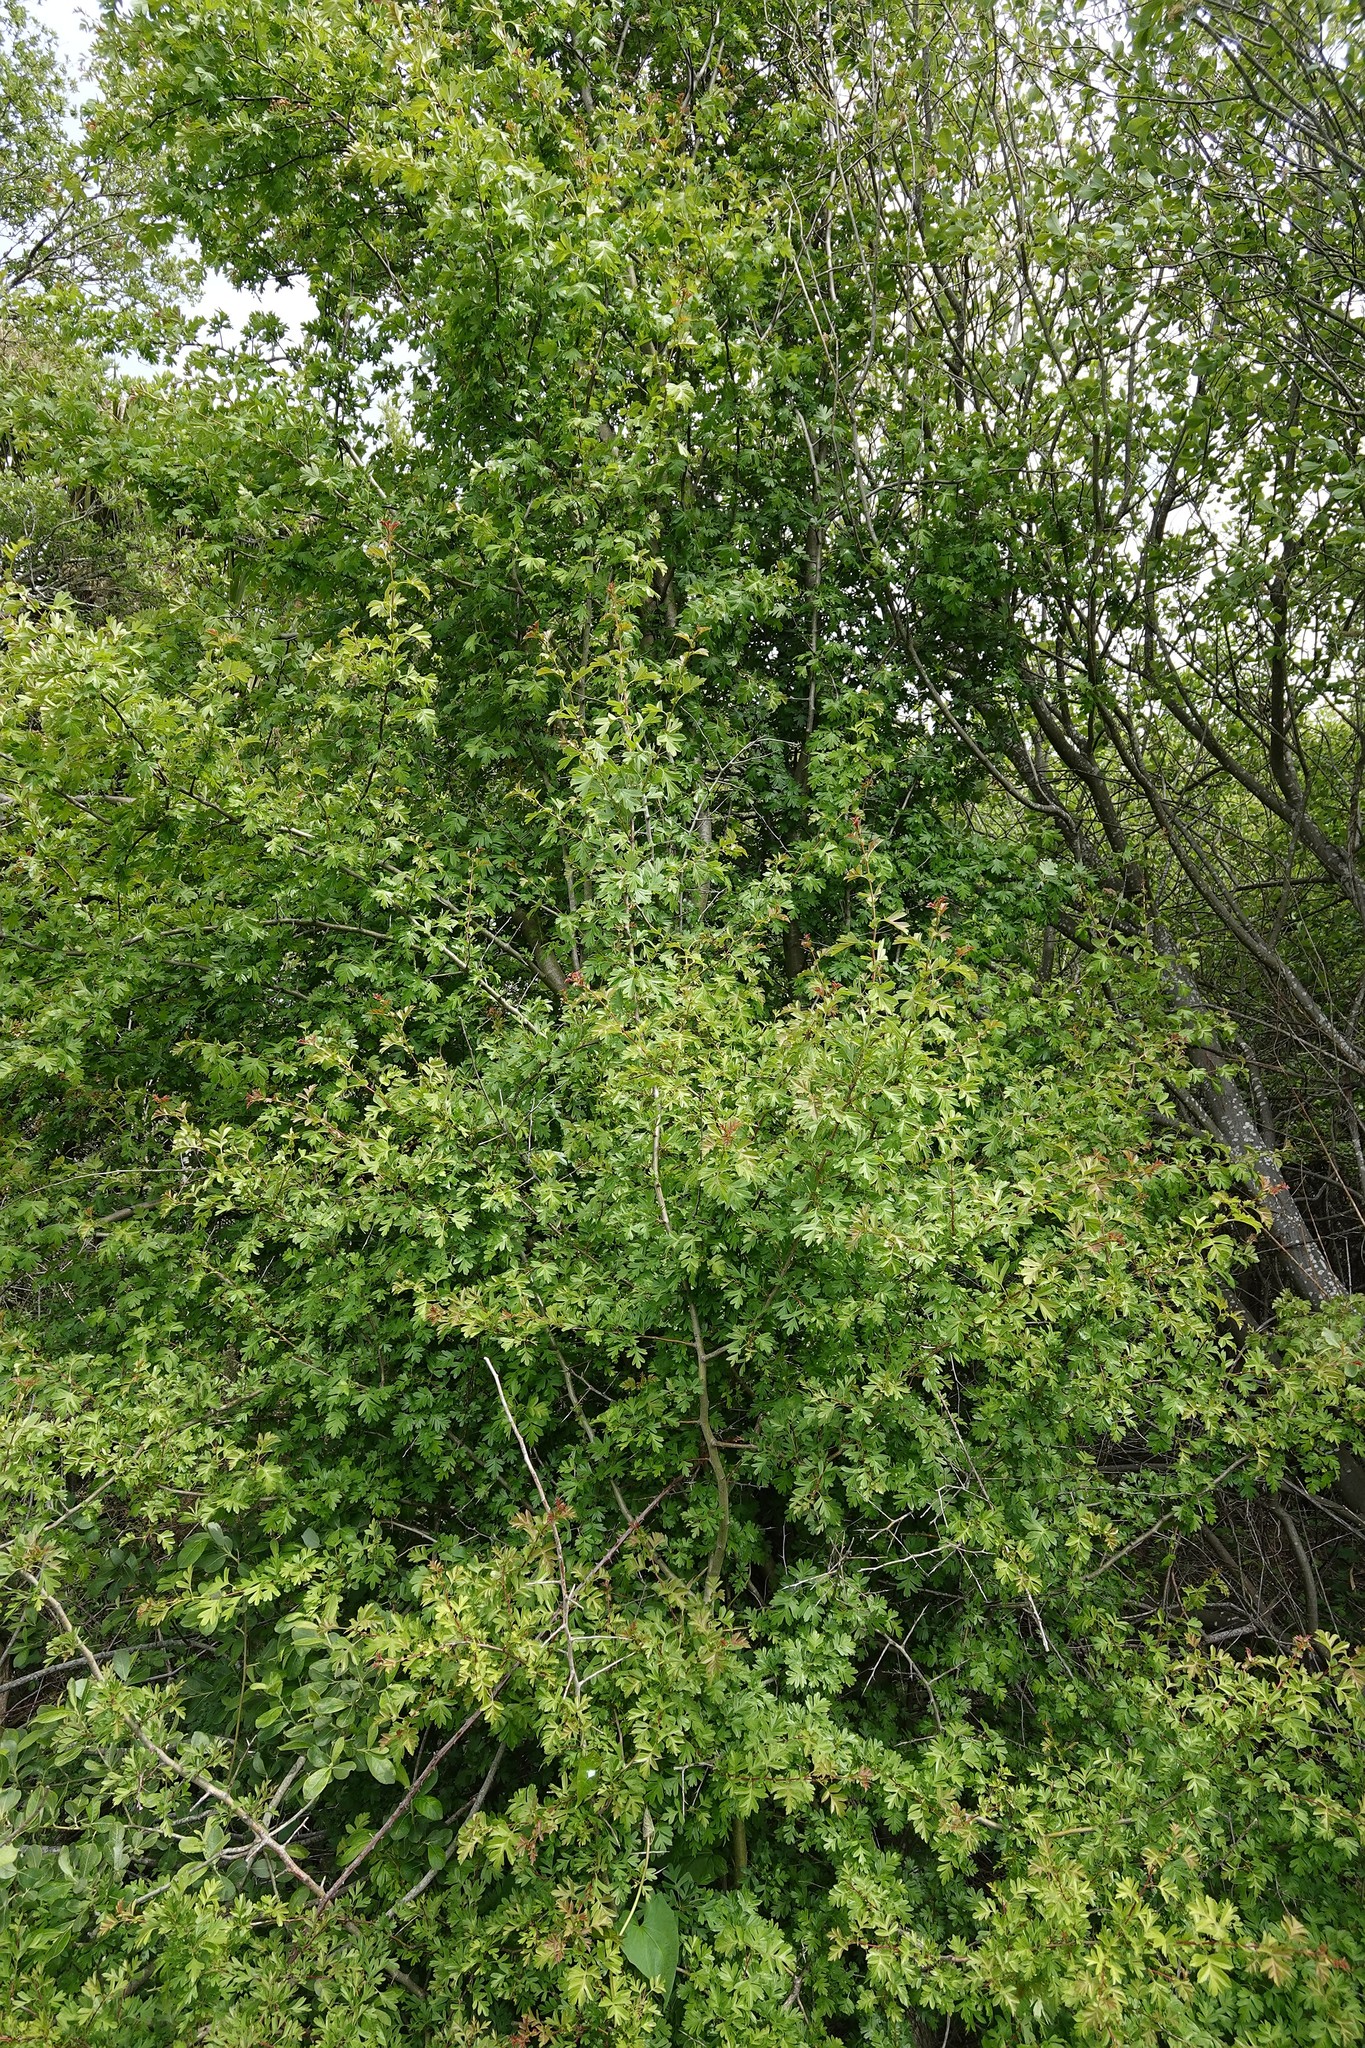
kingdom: Plantae
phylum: Tracheophyta
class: Magnoliopsida
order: Rosales
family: Rosaceae
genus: Crataegus
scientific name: Crataegus monogyna
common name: Hawthorn
